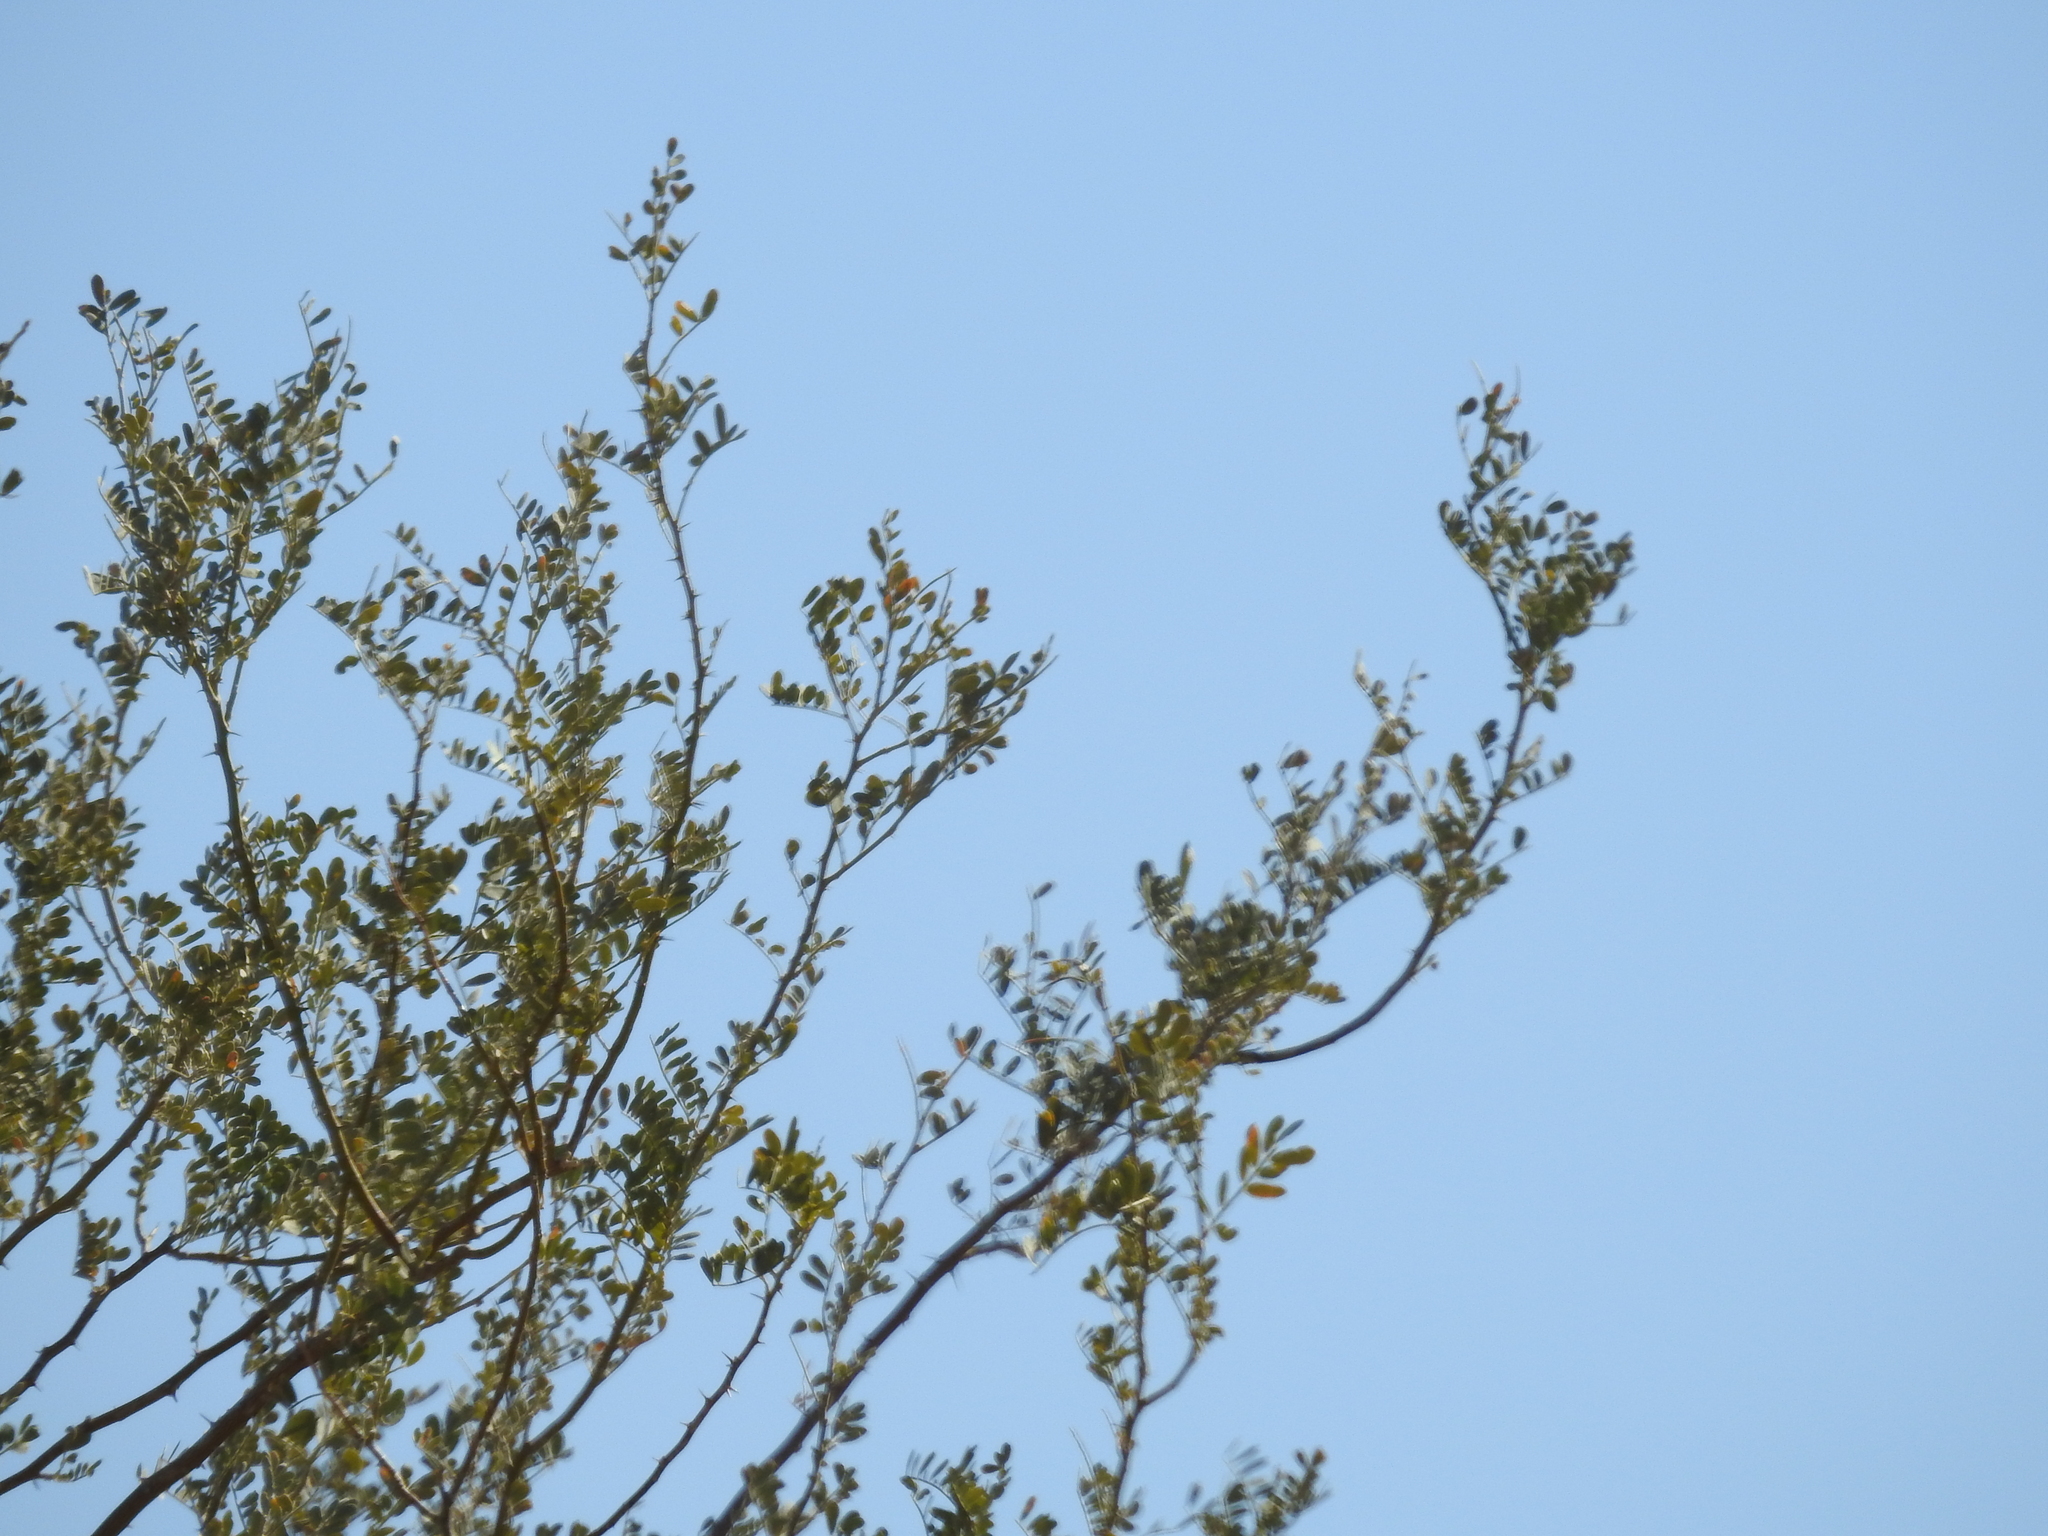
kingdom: Plantae
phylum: Tracheophyta
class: Magnoliopsida
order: Fabales
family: Fabaceae
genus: Olneya
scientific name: Olneya tesota
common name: Desert ironwood
